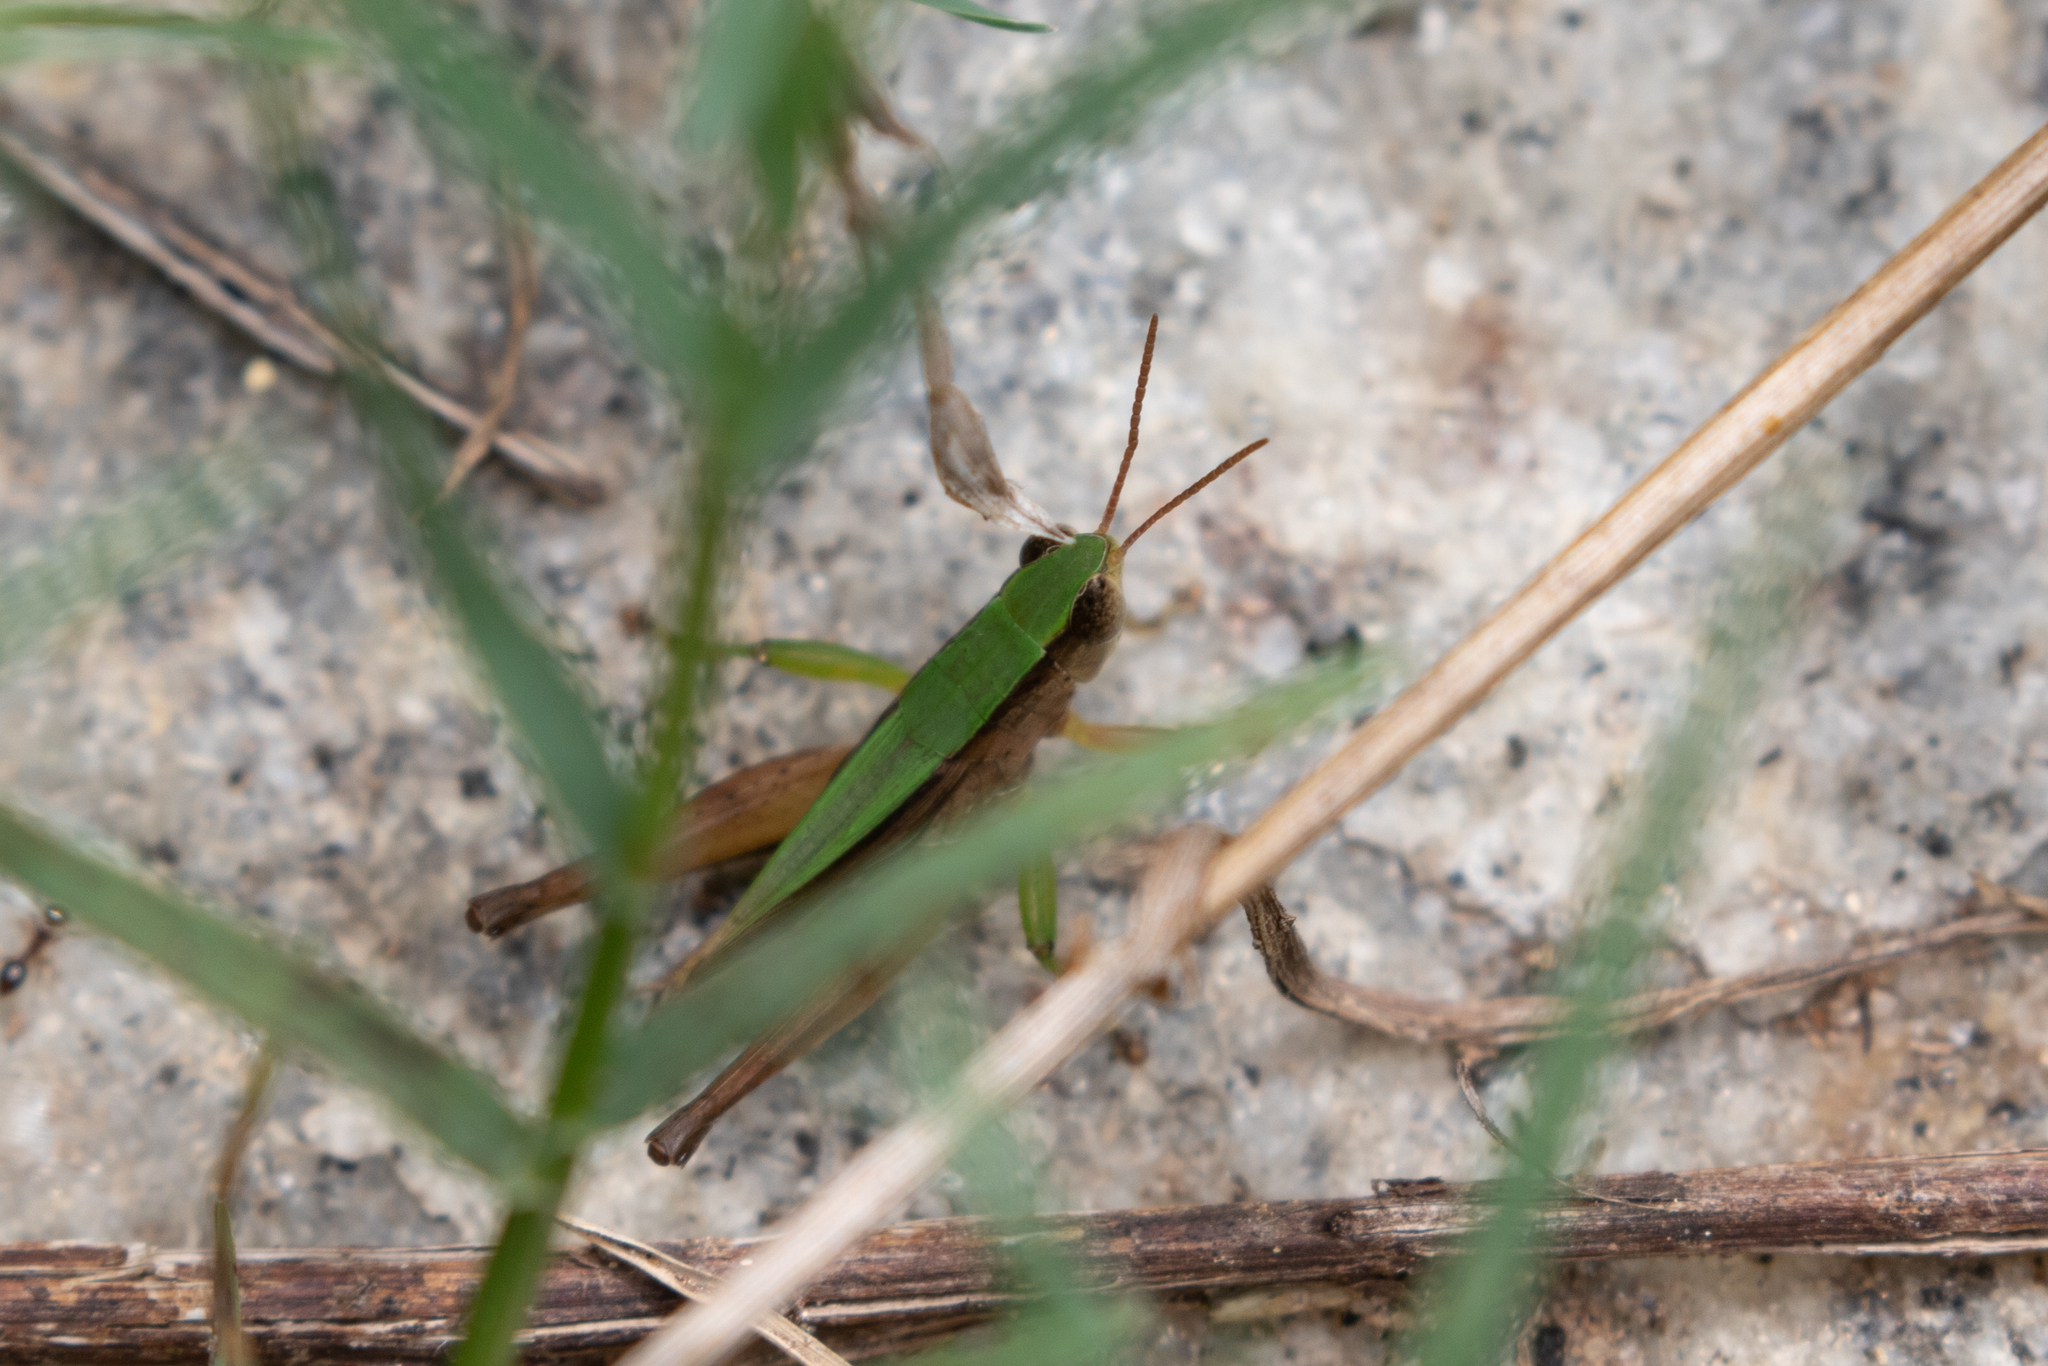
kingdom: Animalia
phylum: Arthropoda
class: Insecta
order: Orthoptera
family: Acrididae
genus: Dichromorpha
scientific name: Dichromorpha viridis
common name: Short-winged green grasshopper
